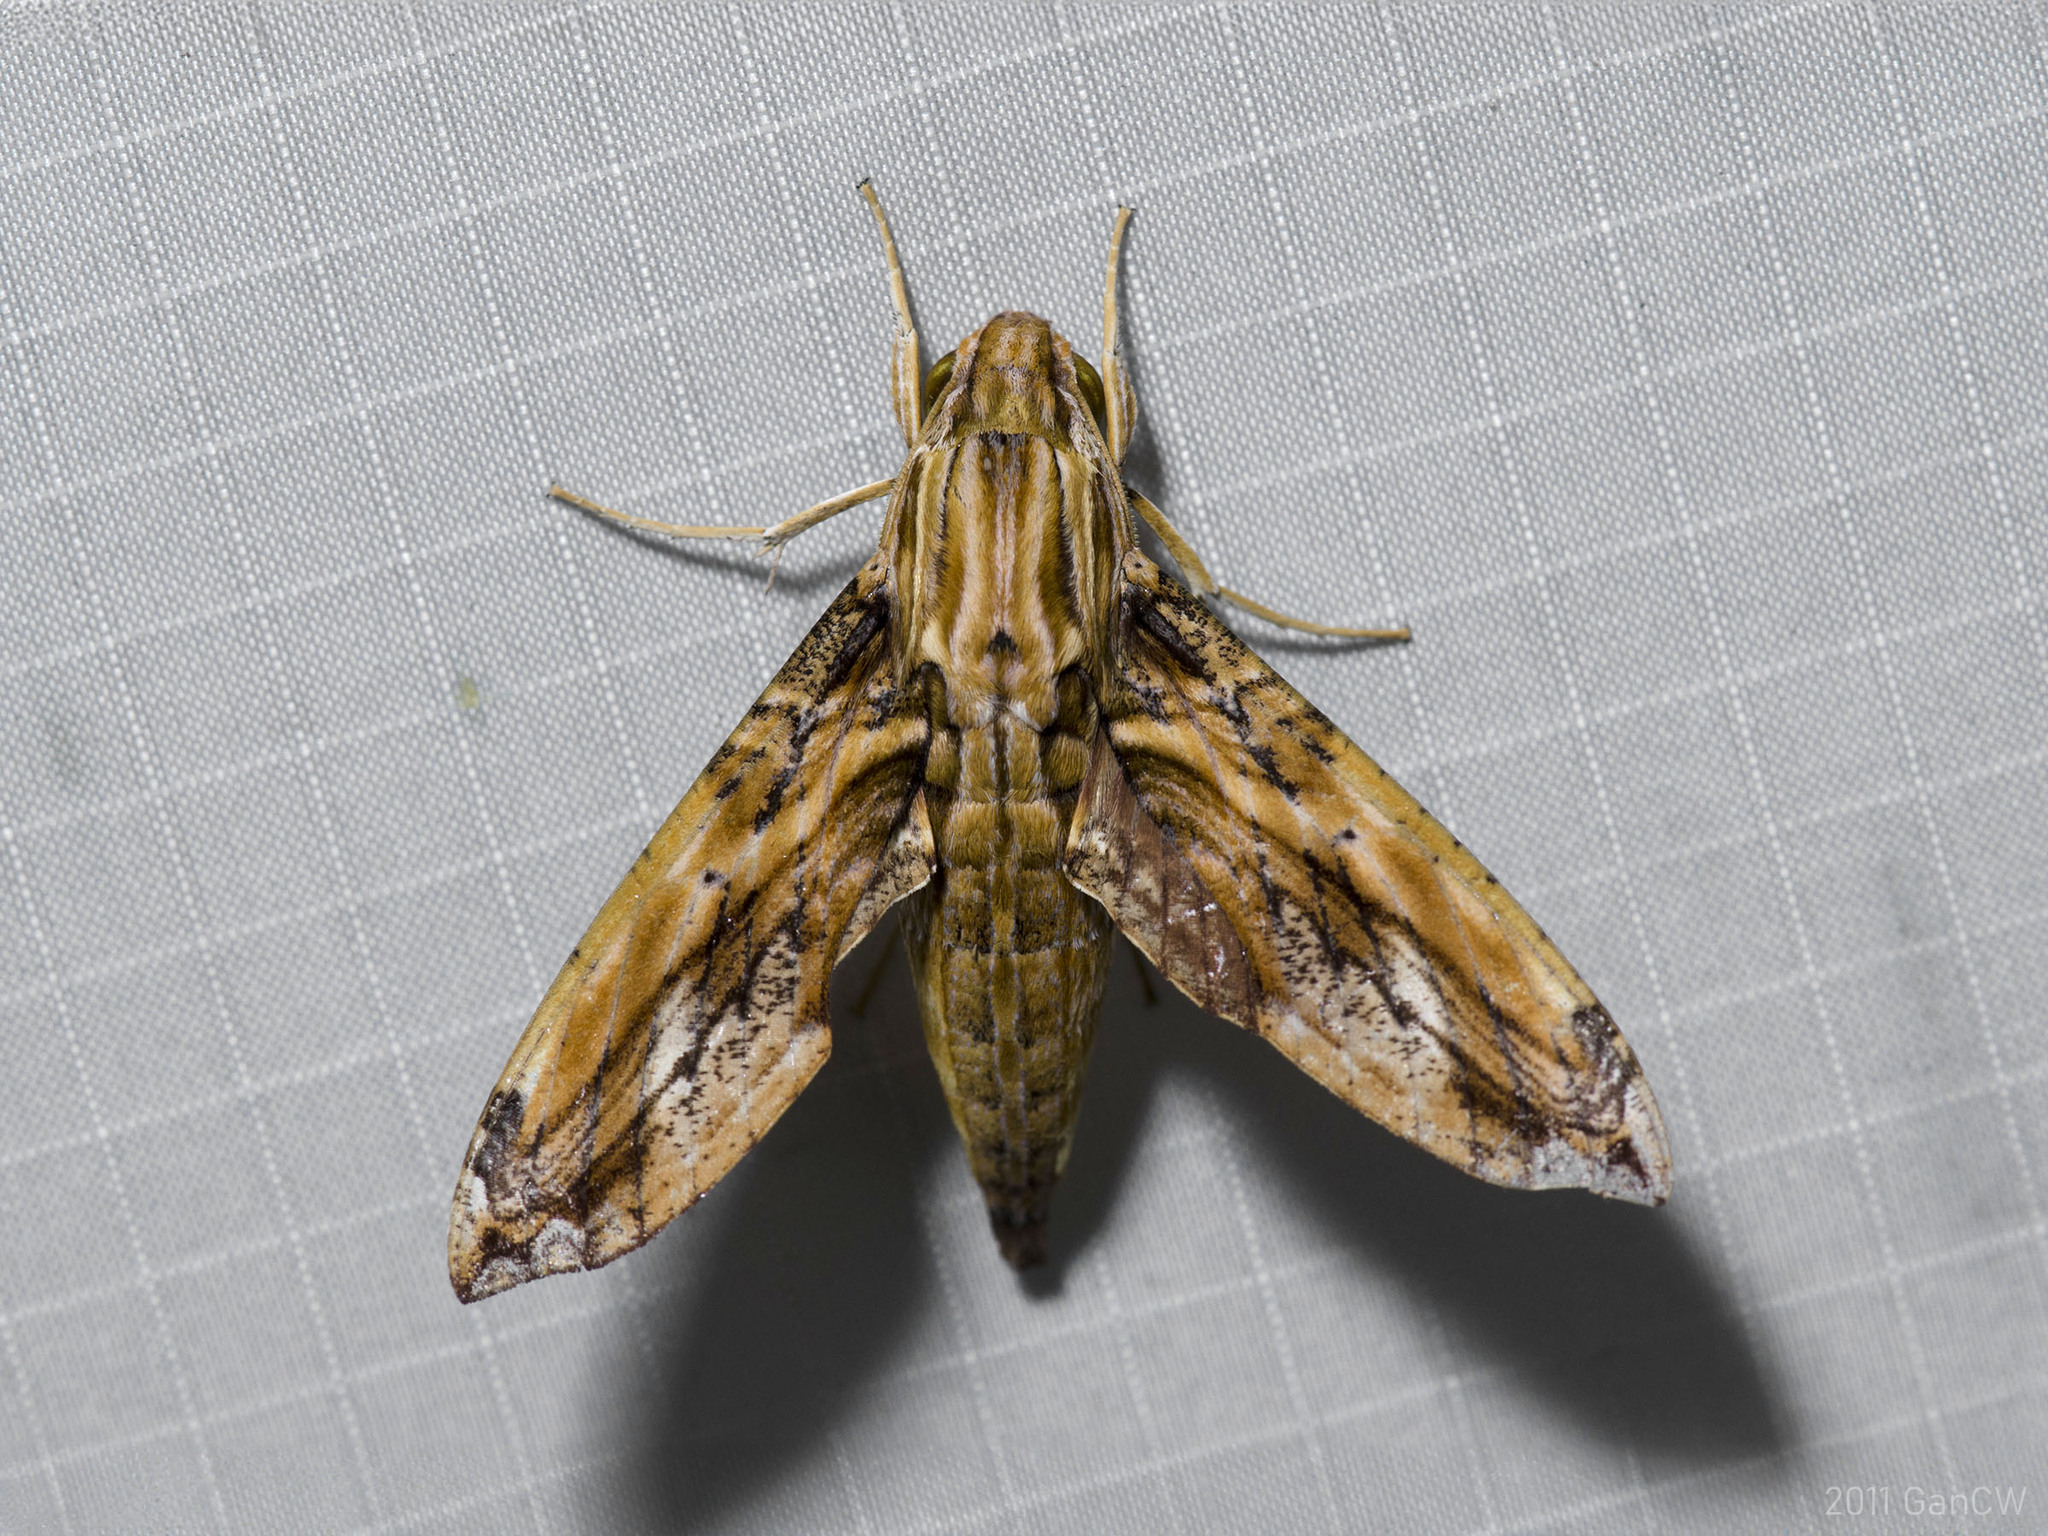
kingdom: Animalia
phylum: Arthropoda
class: Insecta
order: Lepidoptera
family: Sphingidae
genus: Eupanacra
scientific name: Eupanacra variolosa
